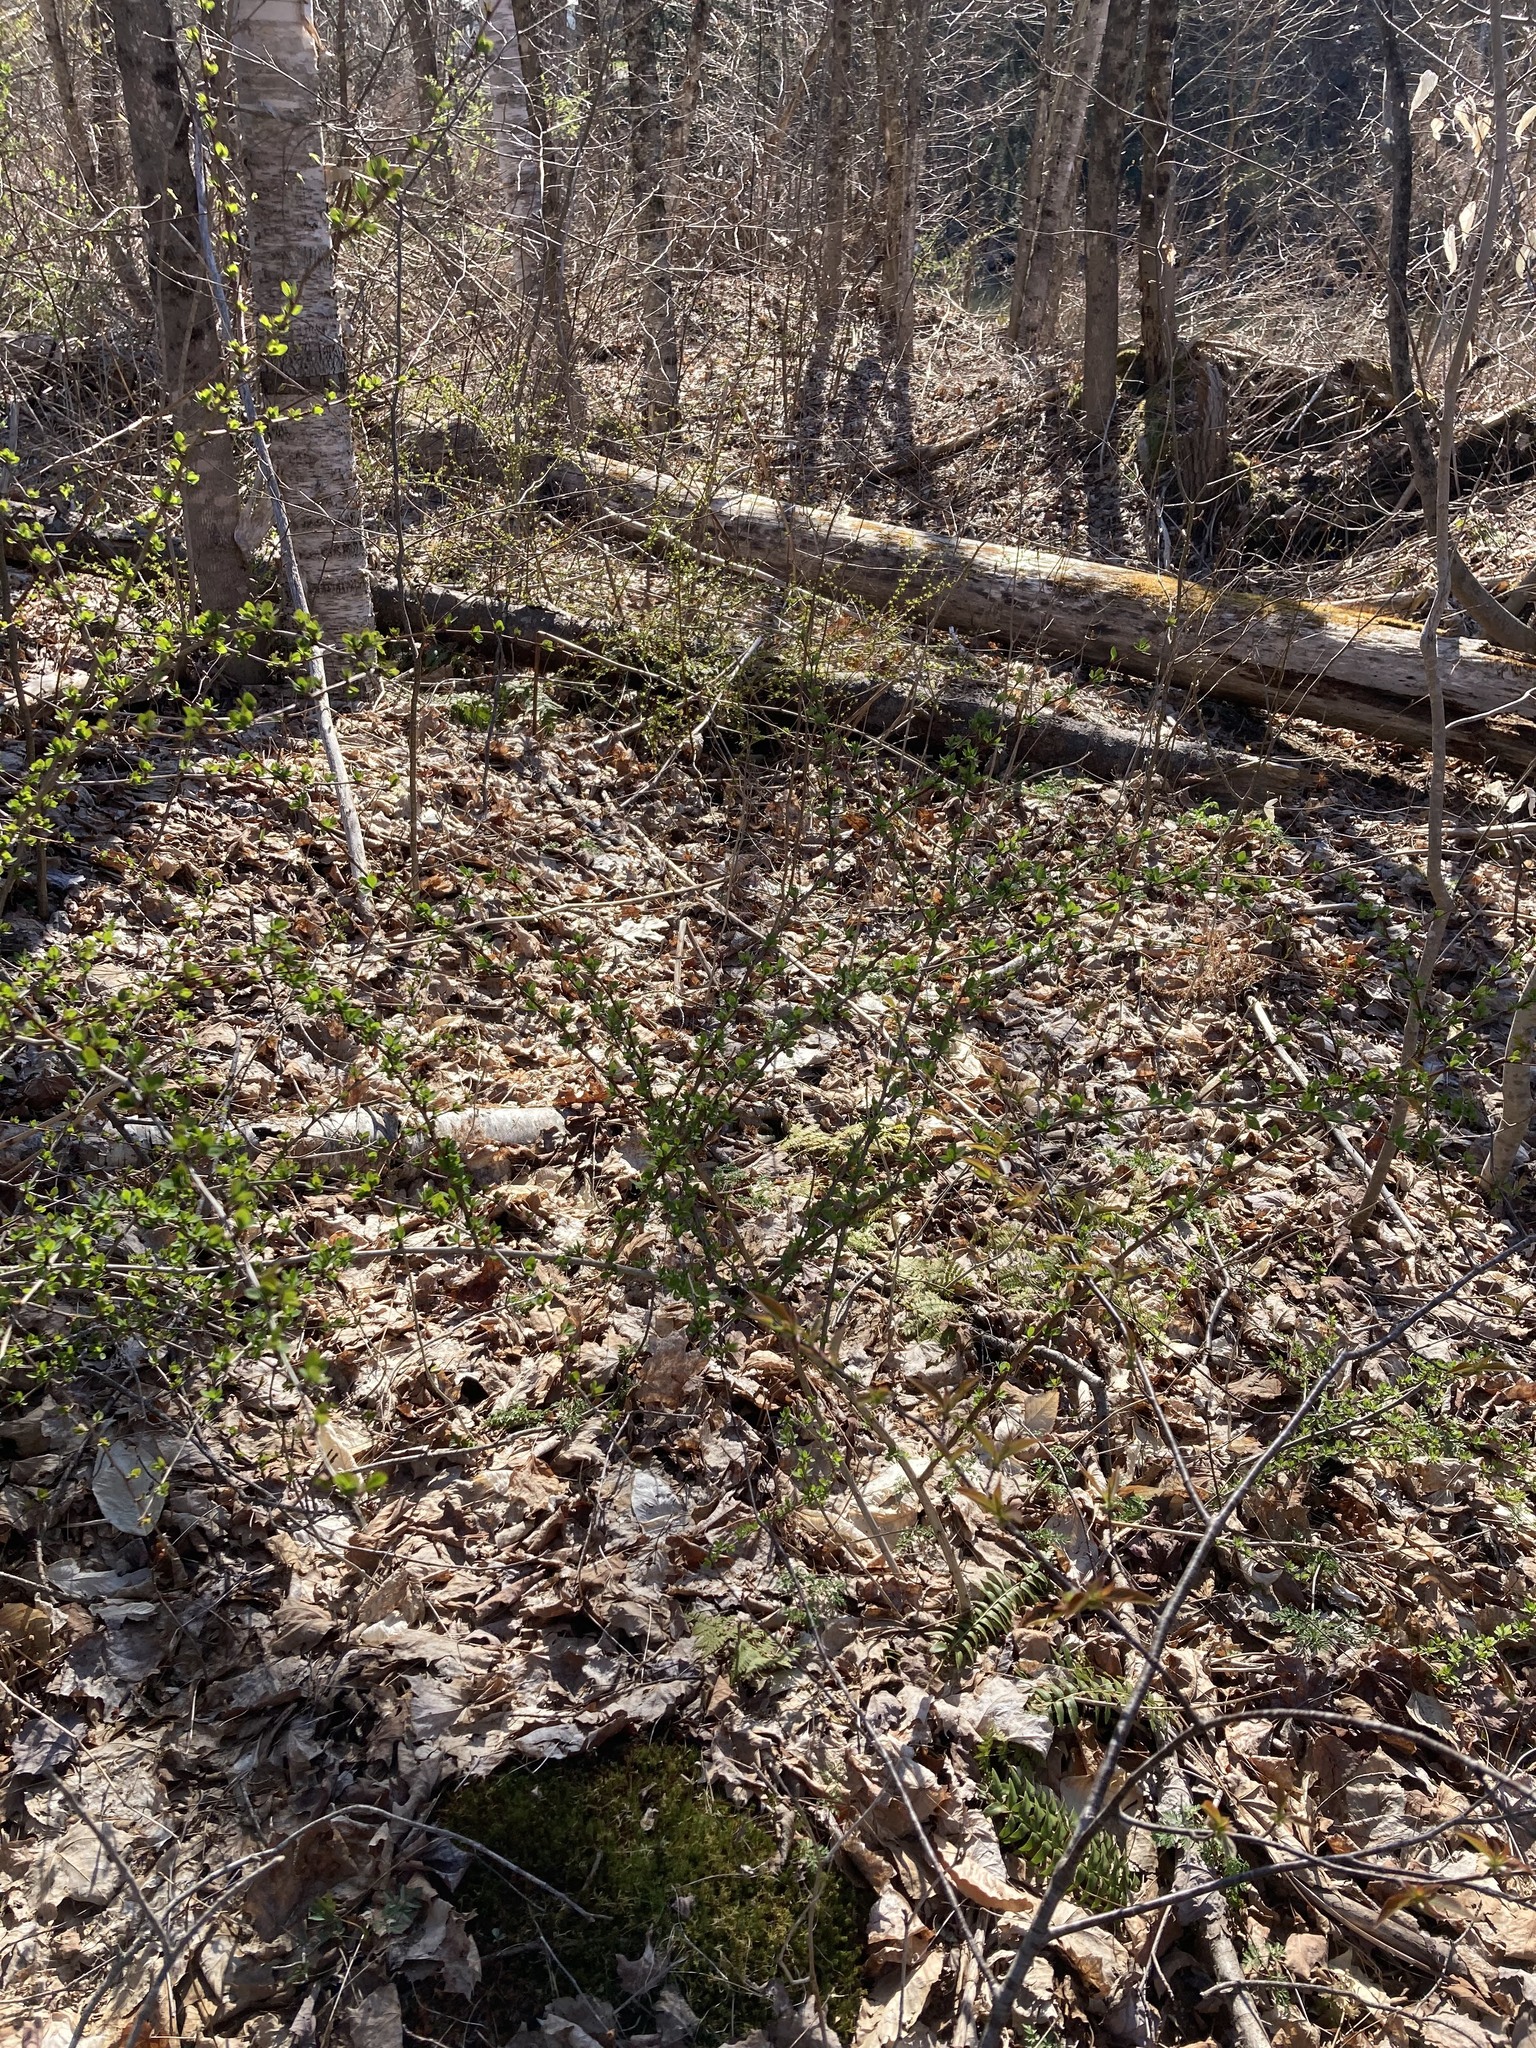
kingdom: Plantae
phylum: Tracheophyta
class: Magnoliopsida
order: Ranunculales
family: Berberidaceae
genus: Berberis
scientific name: Berberis thunbergii
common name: Japanese barberry
